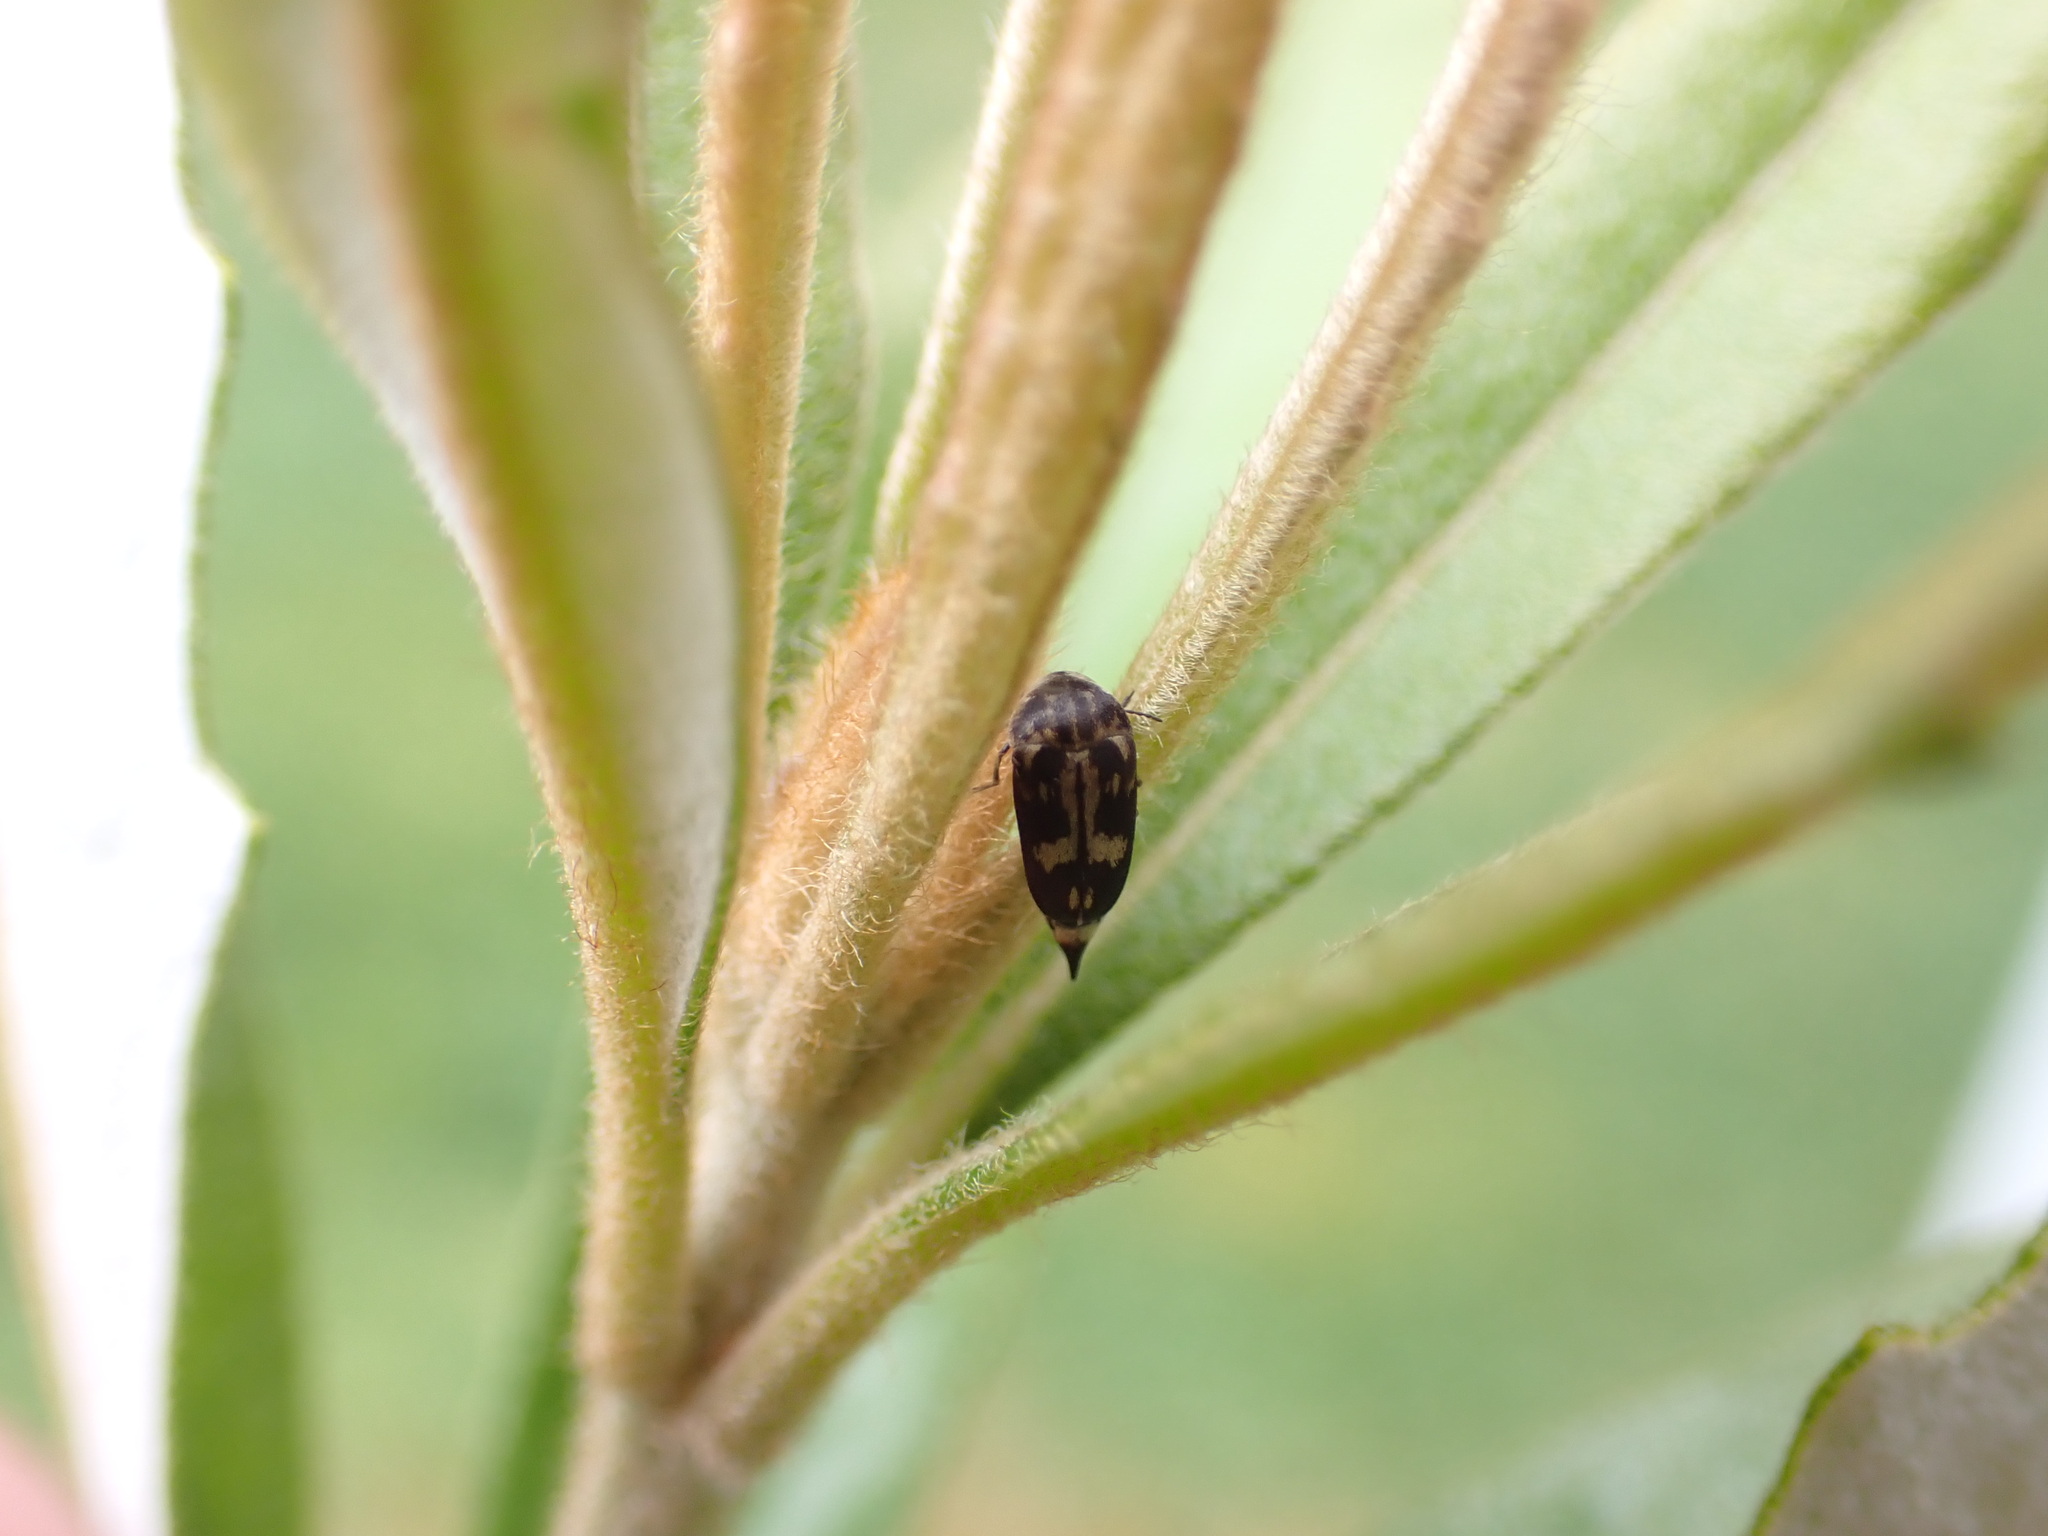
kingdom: Animalia
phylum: Arthropoda
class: Insecta
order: Coleoptera
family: Mordellidae
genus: Zeamordella
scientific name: Zeamordella monacha
